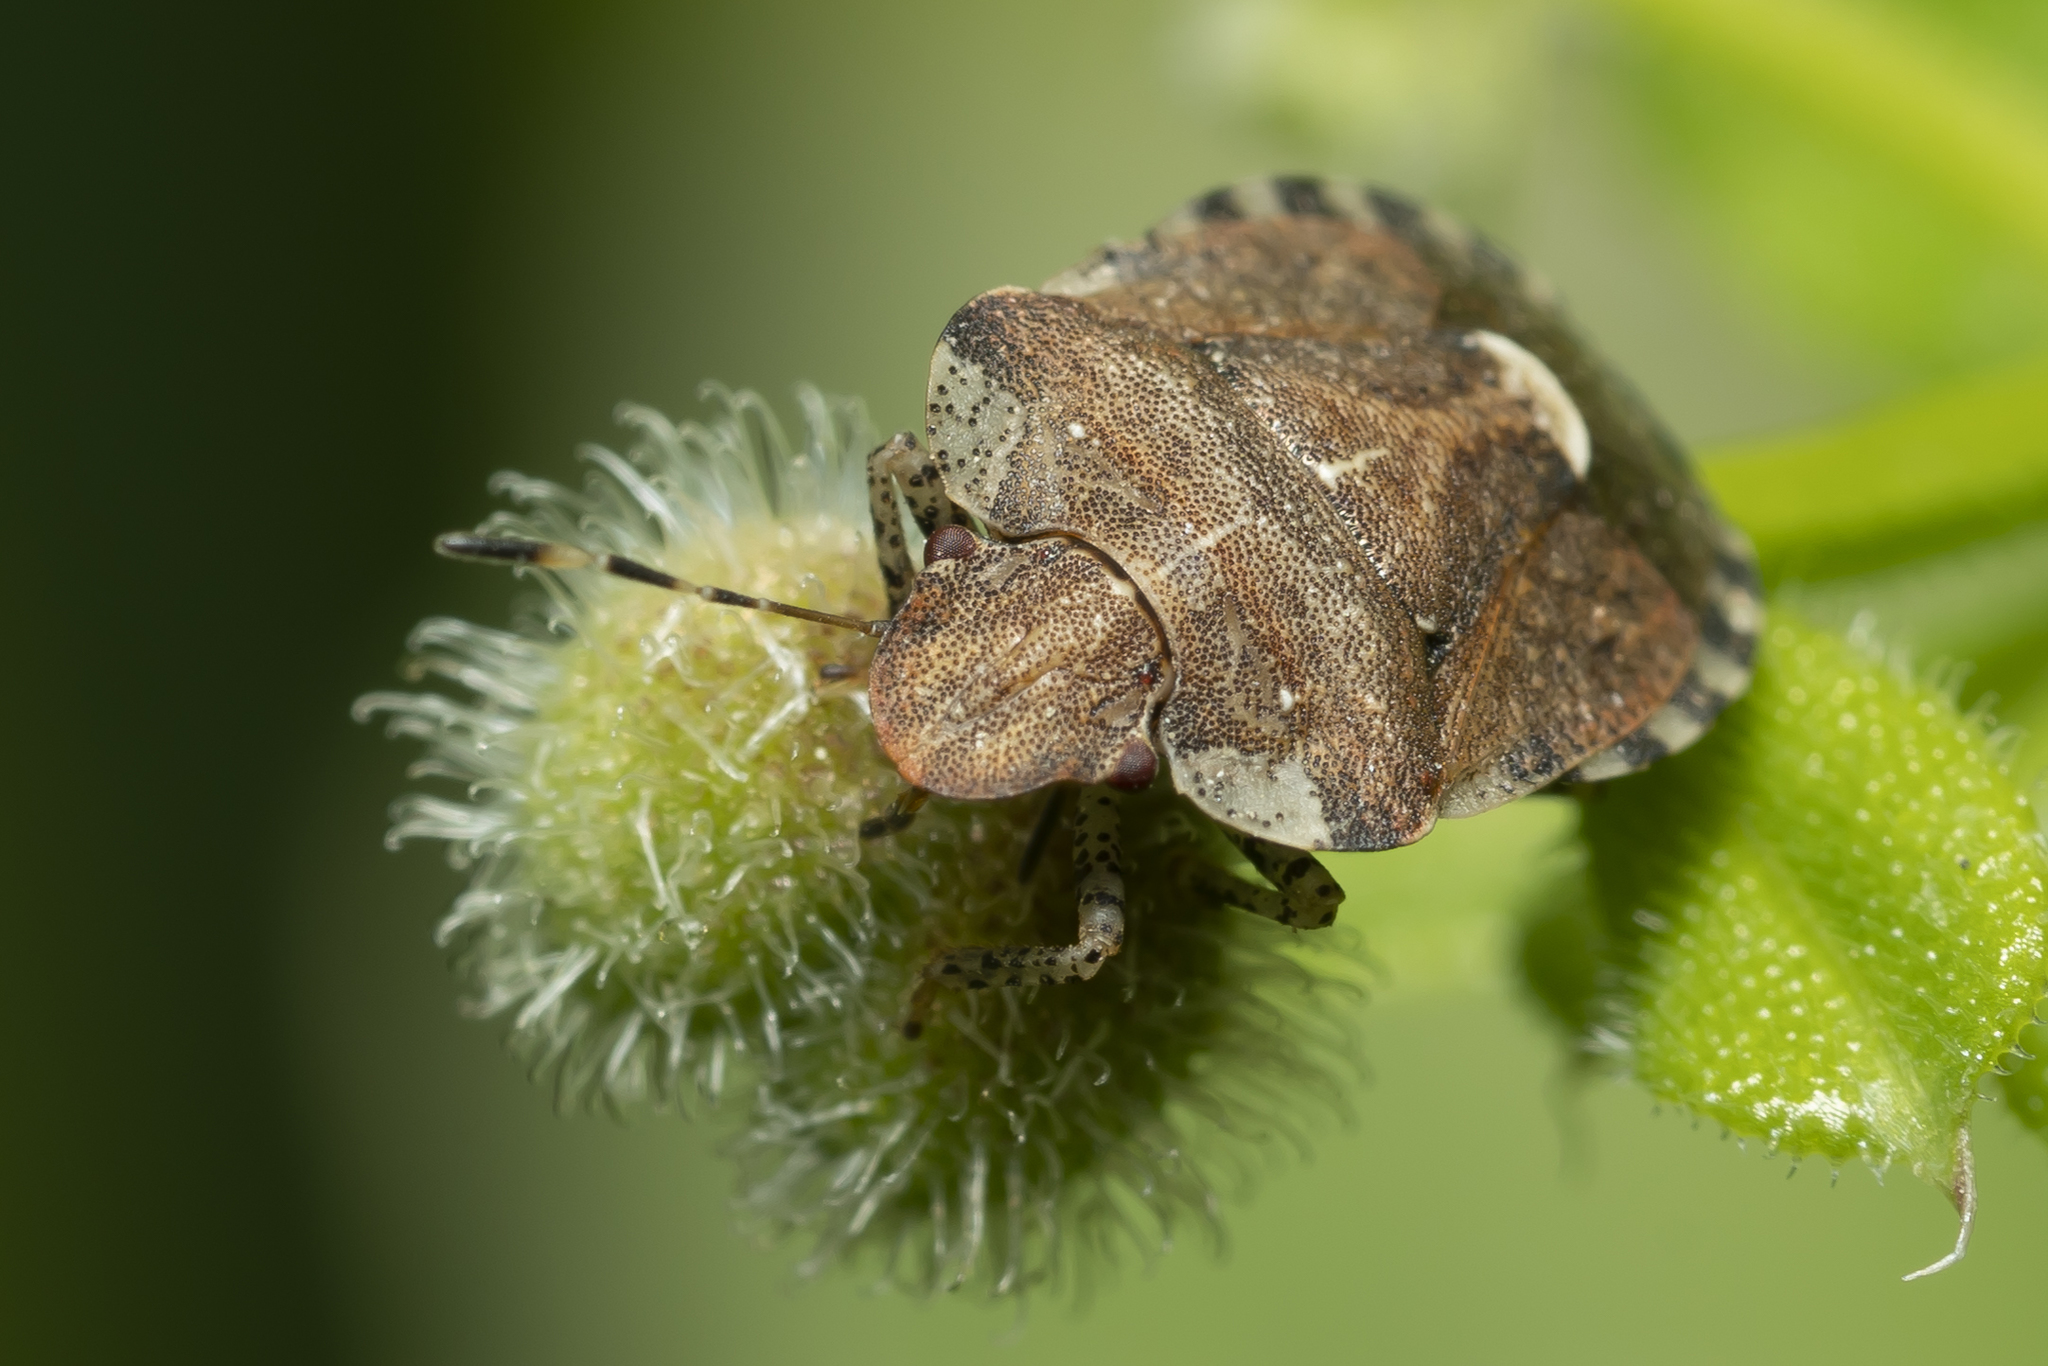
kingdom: Animalia
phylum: Arthropoda
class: Insecta
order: Hemiptera
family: Pentatomidae
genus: Dyroderes
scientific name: Dyroderes umbraculatus
